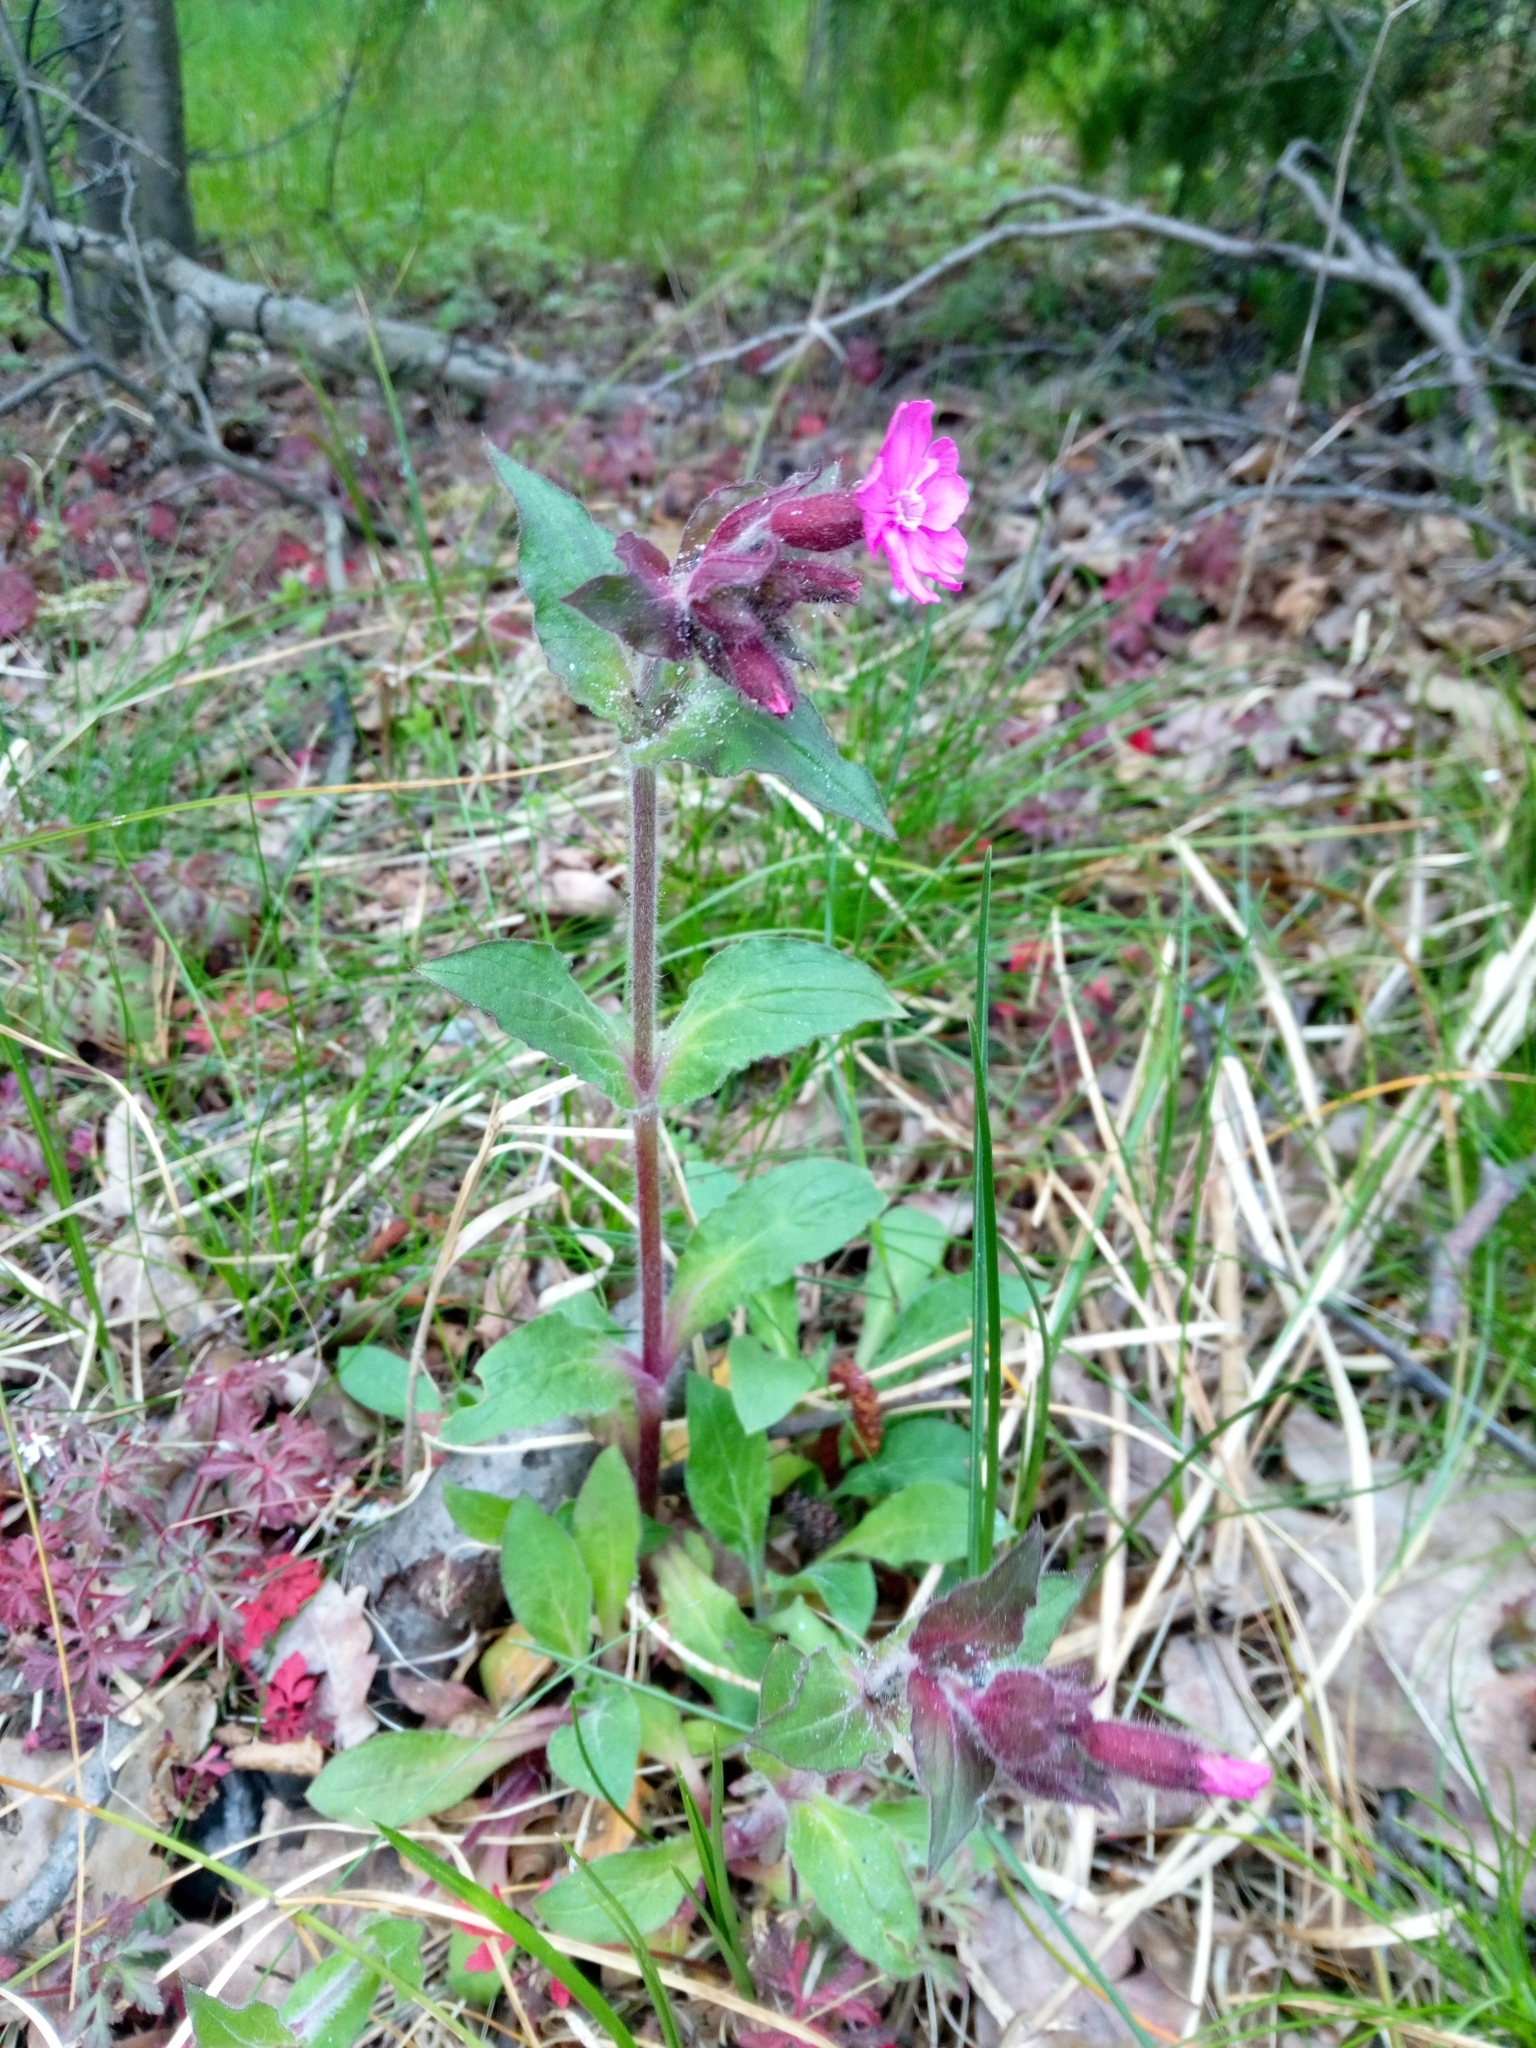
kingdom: Plantae
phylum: Tracheophyta
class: Magnoliopsida
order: Caryophyllales
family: Caryophyllaceae
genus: Silene
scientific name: Silene dioica
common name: Red campion
